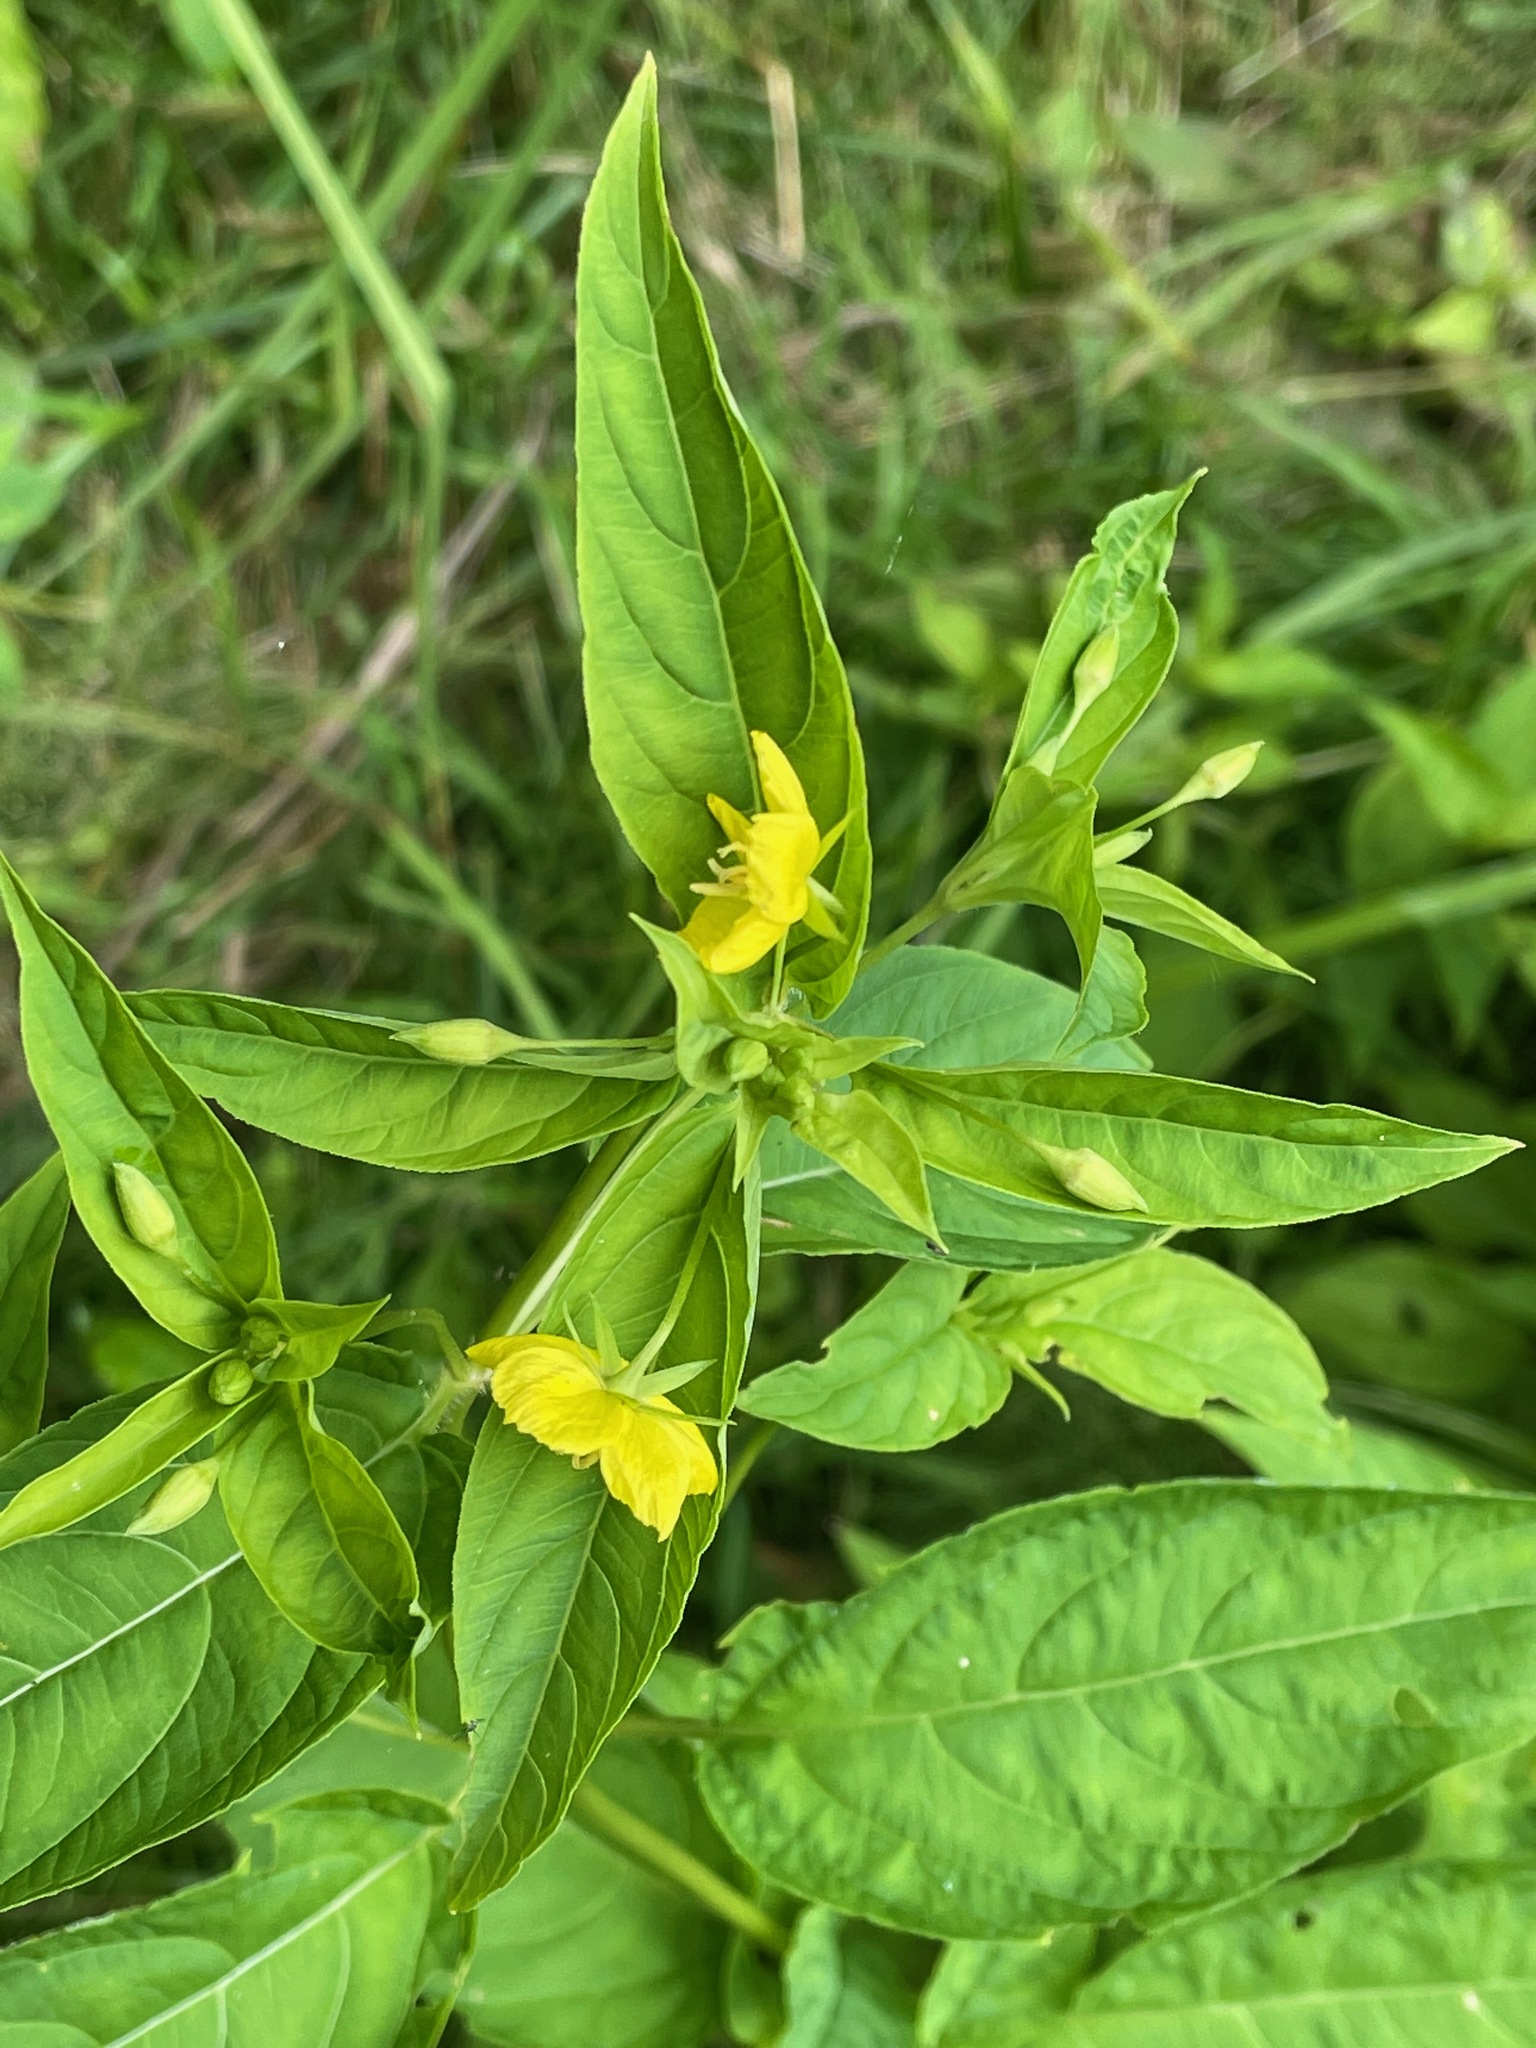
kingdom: Plantae
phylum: Tracheophyta
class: Magnoliopsida
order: Ericales
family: Primulaceae
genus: Lysimachia
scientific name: Lysimachia ciliata
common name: Fringed loosestrife
